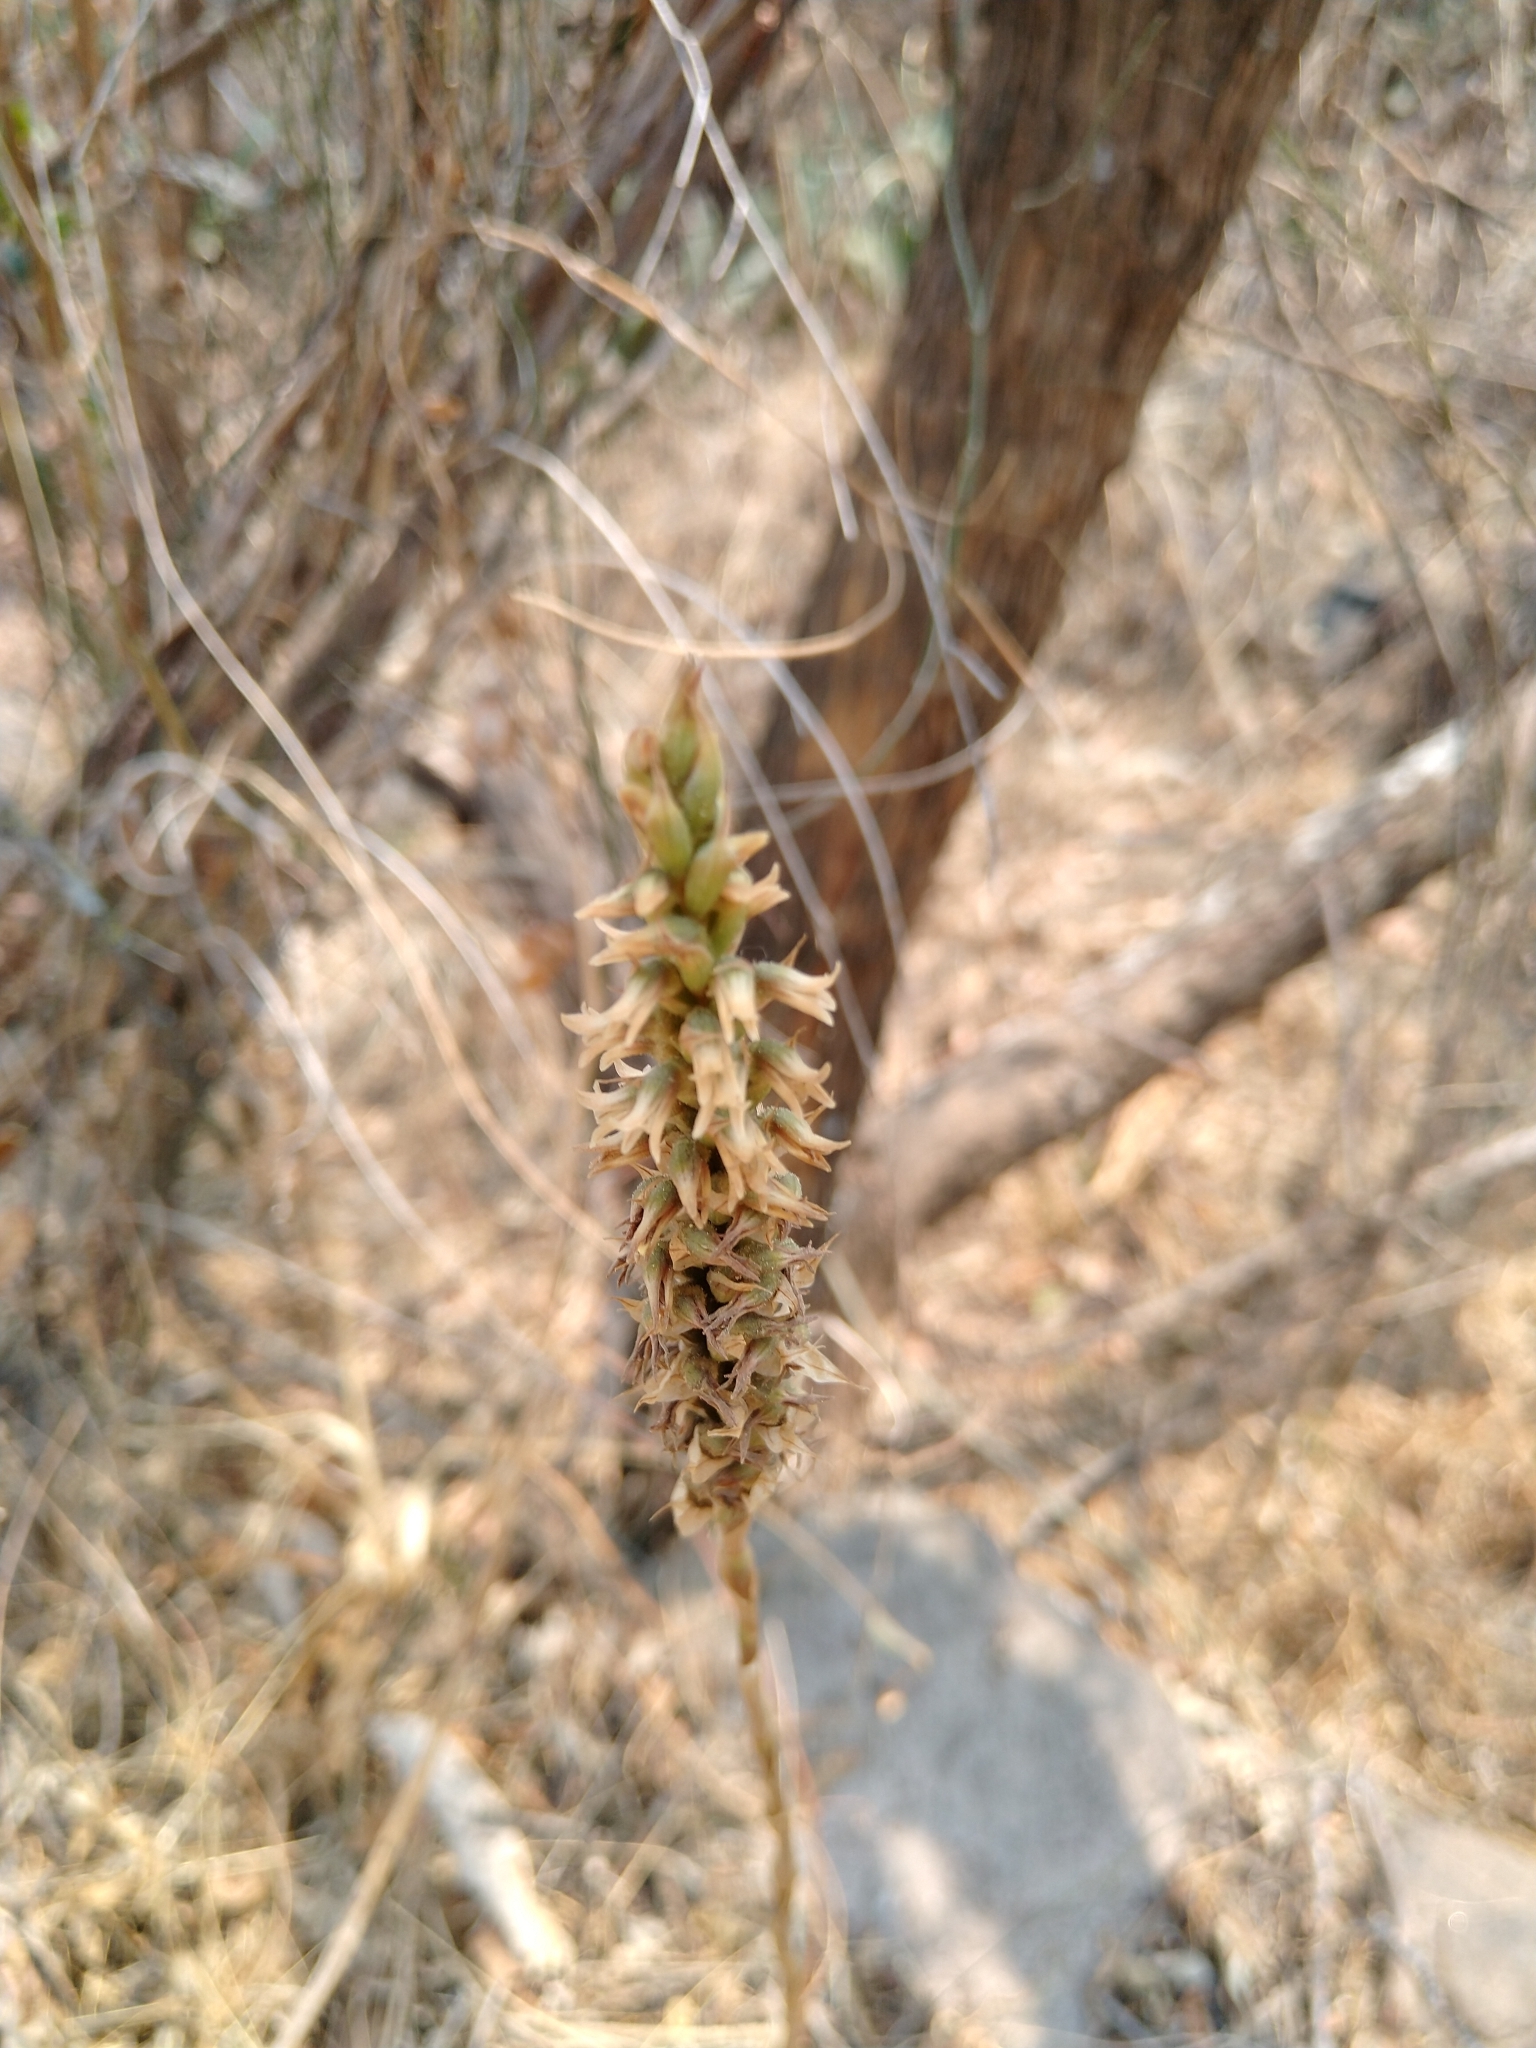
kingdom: Plantae
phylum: Tracheophyta
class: Liliopsida
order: Asparagales
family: Orchidaceae
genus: Aulosepalum
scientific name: Aulosepalum pyramidale
